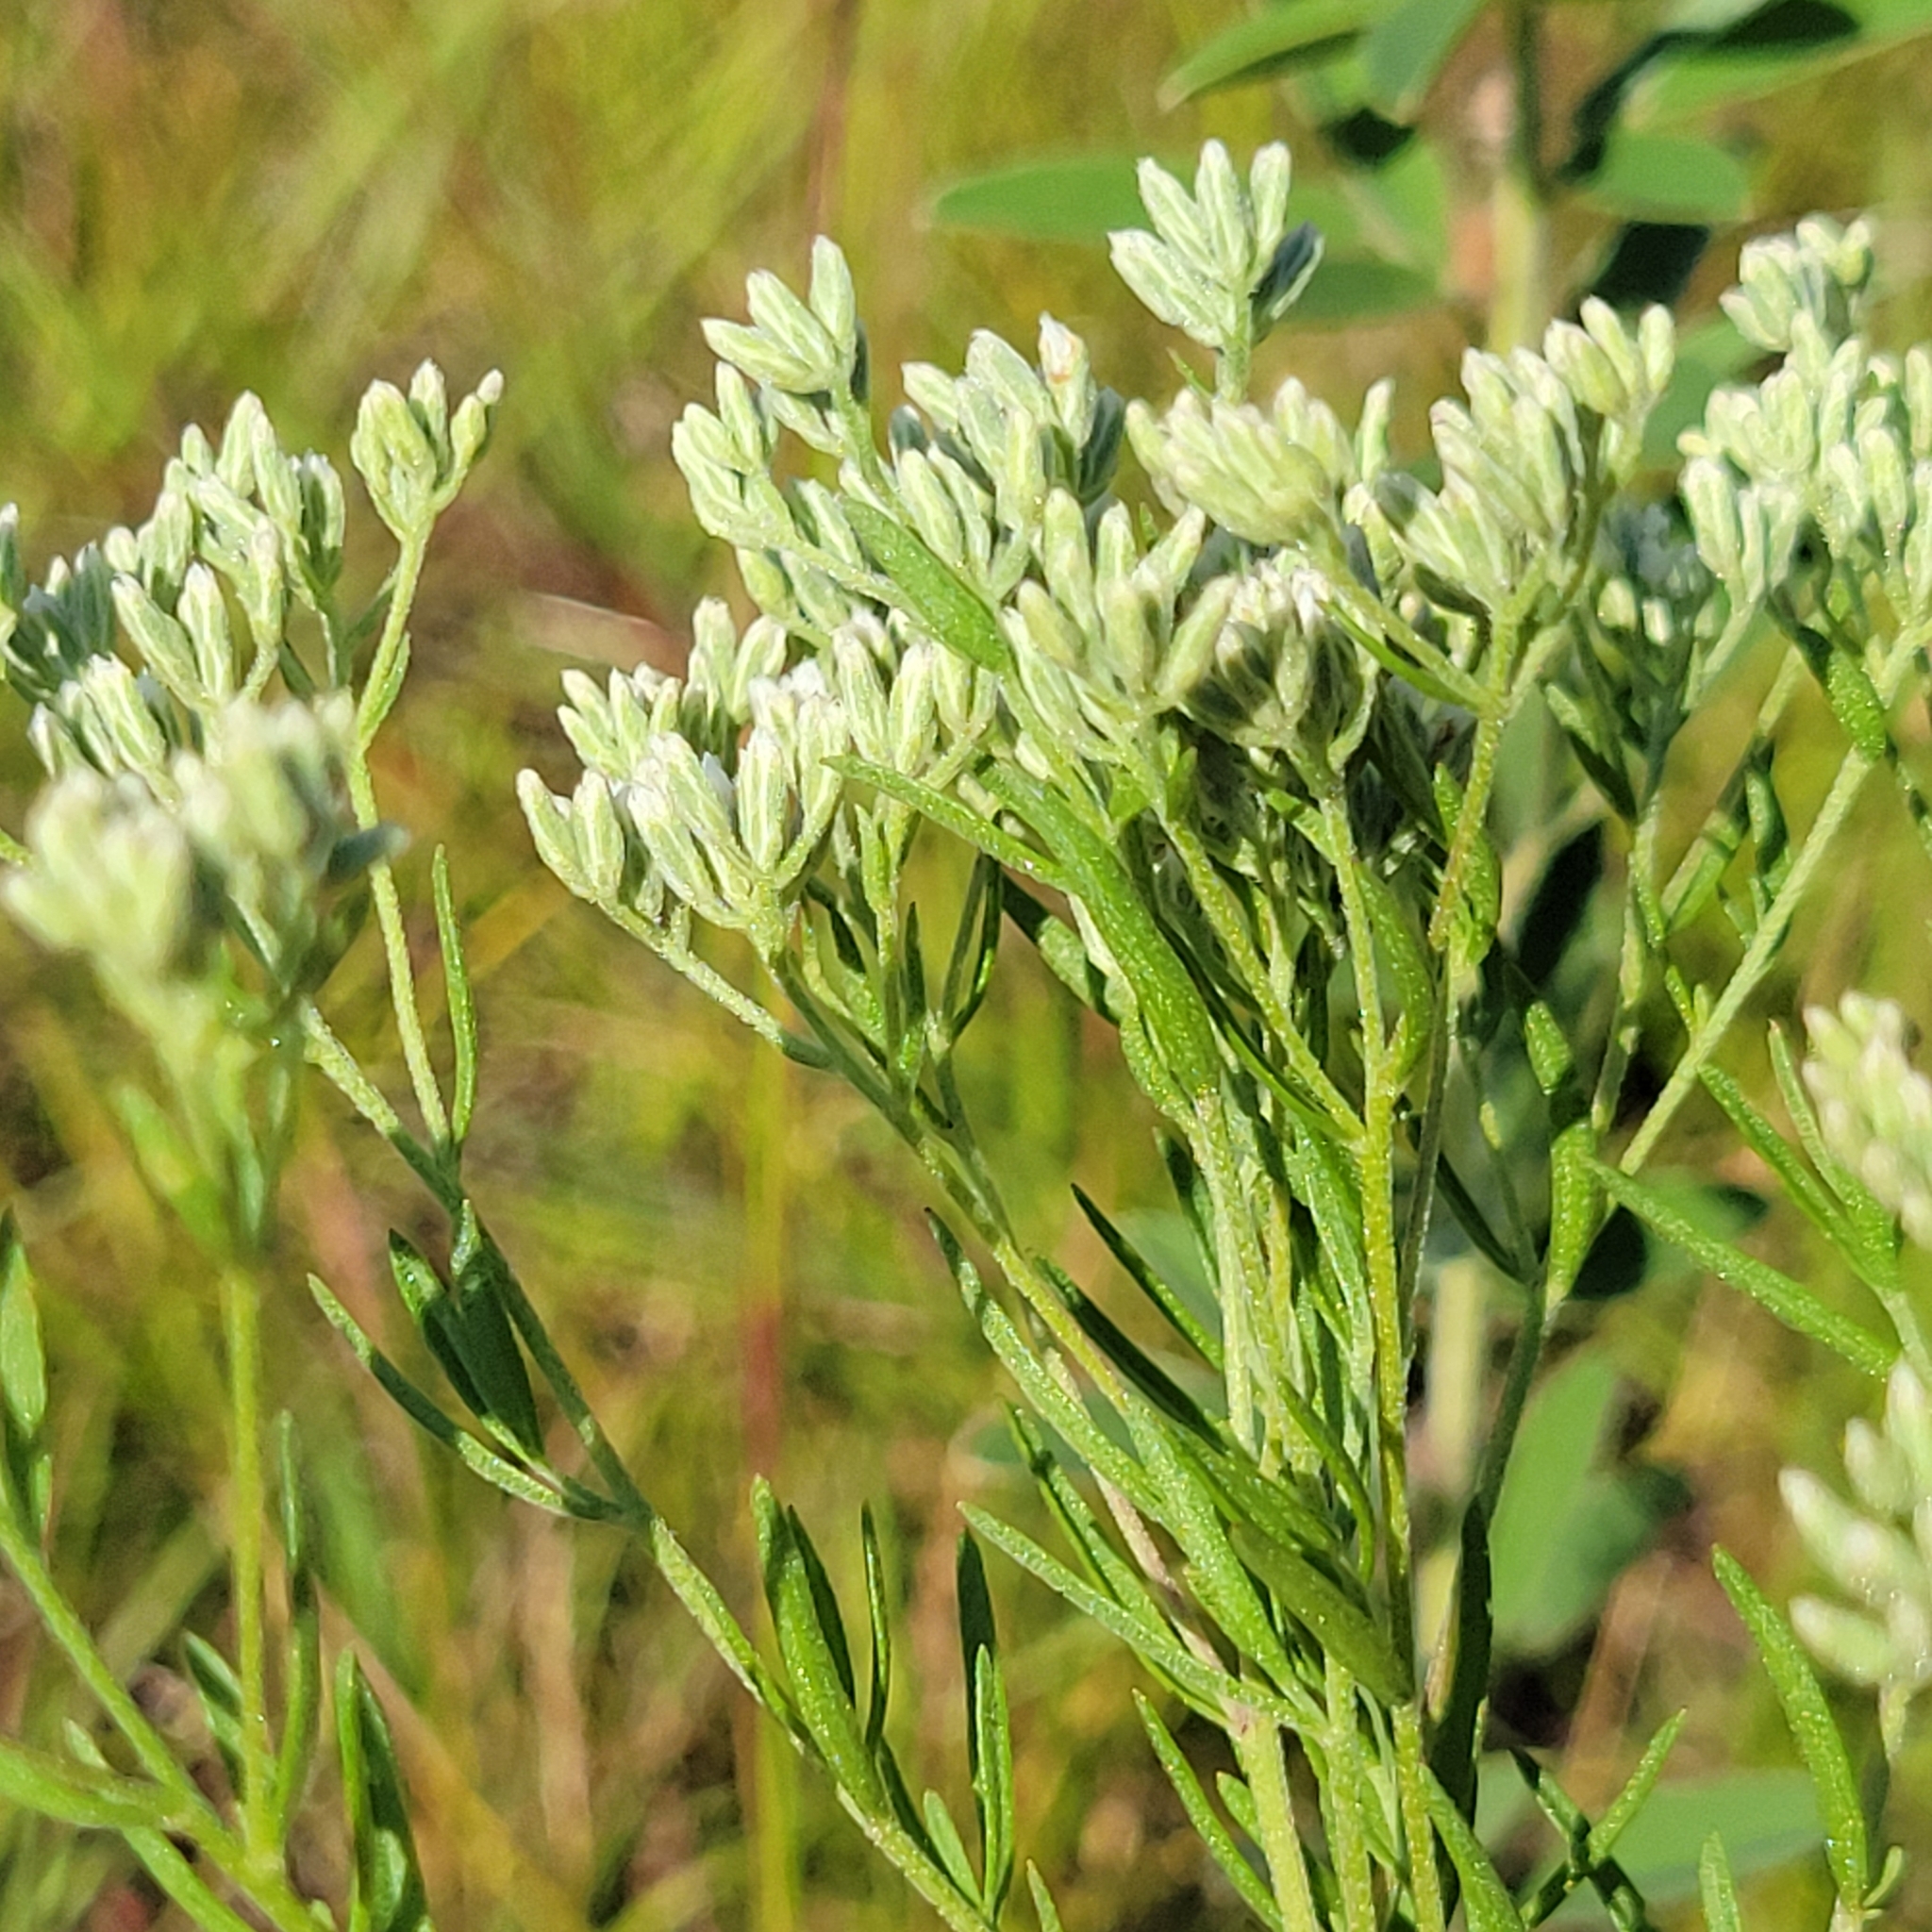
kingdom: Plantae
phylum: Tracheophyta
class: Magnoliopsida
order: Asterales
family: Asteraceae
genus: Eupatorium
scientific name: Eupatorium hyssopifolium
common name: Hyssop-leaf thoroughwort
